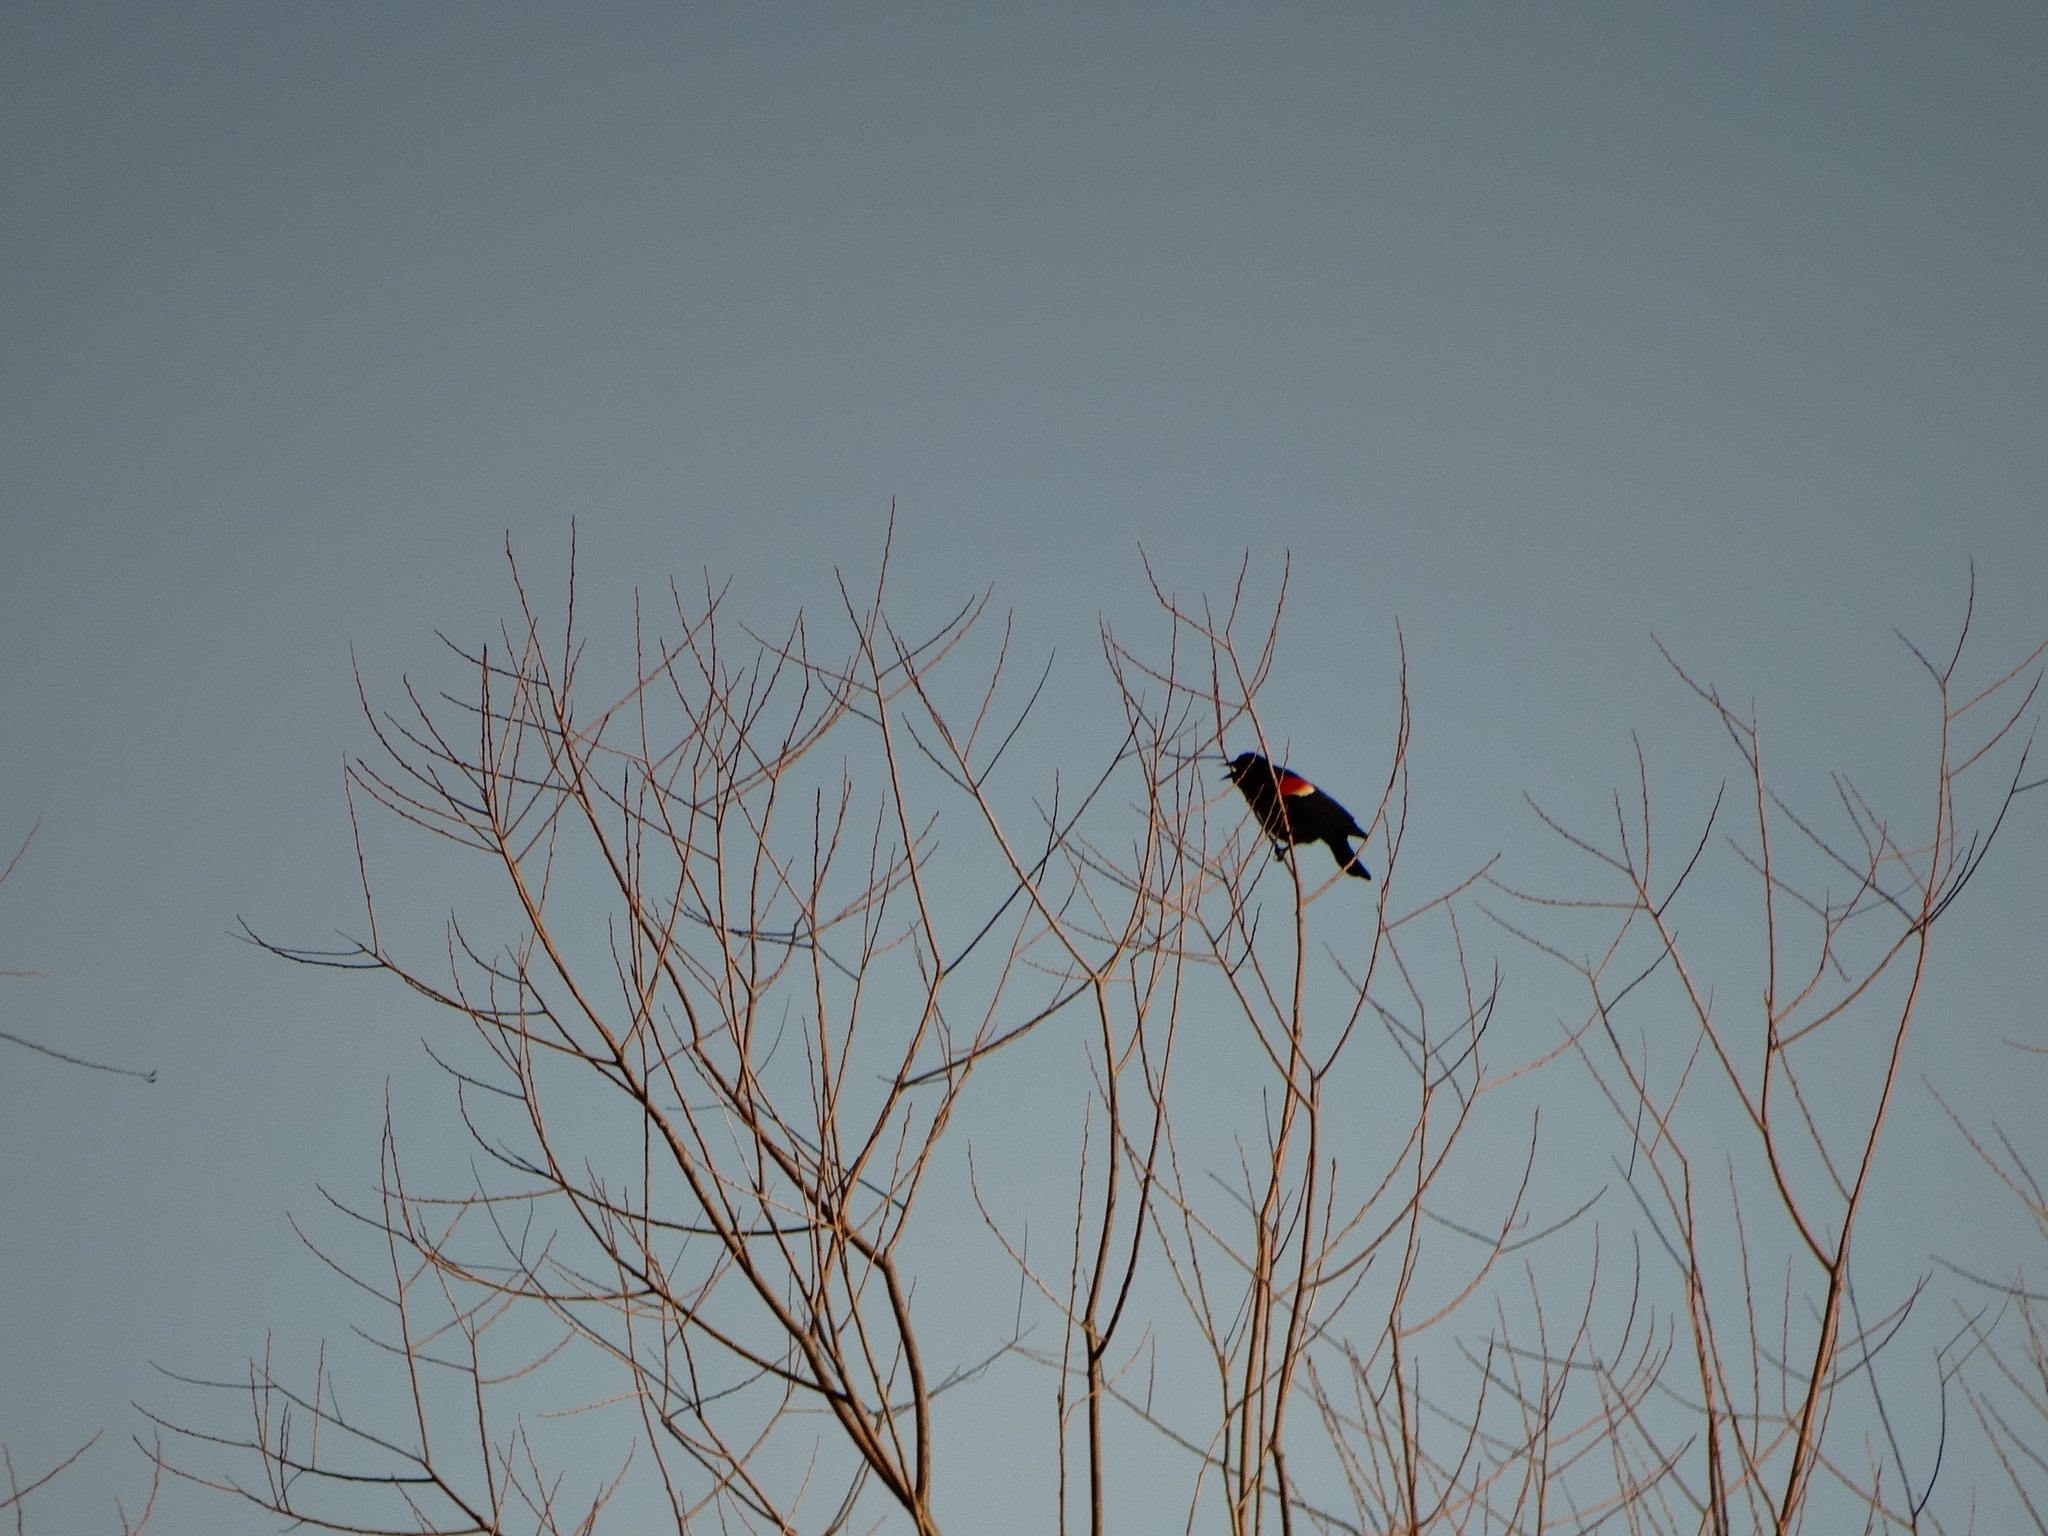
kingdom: Animalia
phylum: Chordata
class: Aves
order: Passeriformes
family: Icteridae
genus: Agelaius
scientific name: Agelaius phoeniceus
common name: Red-winged blackbird
